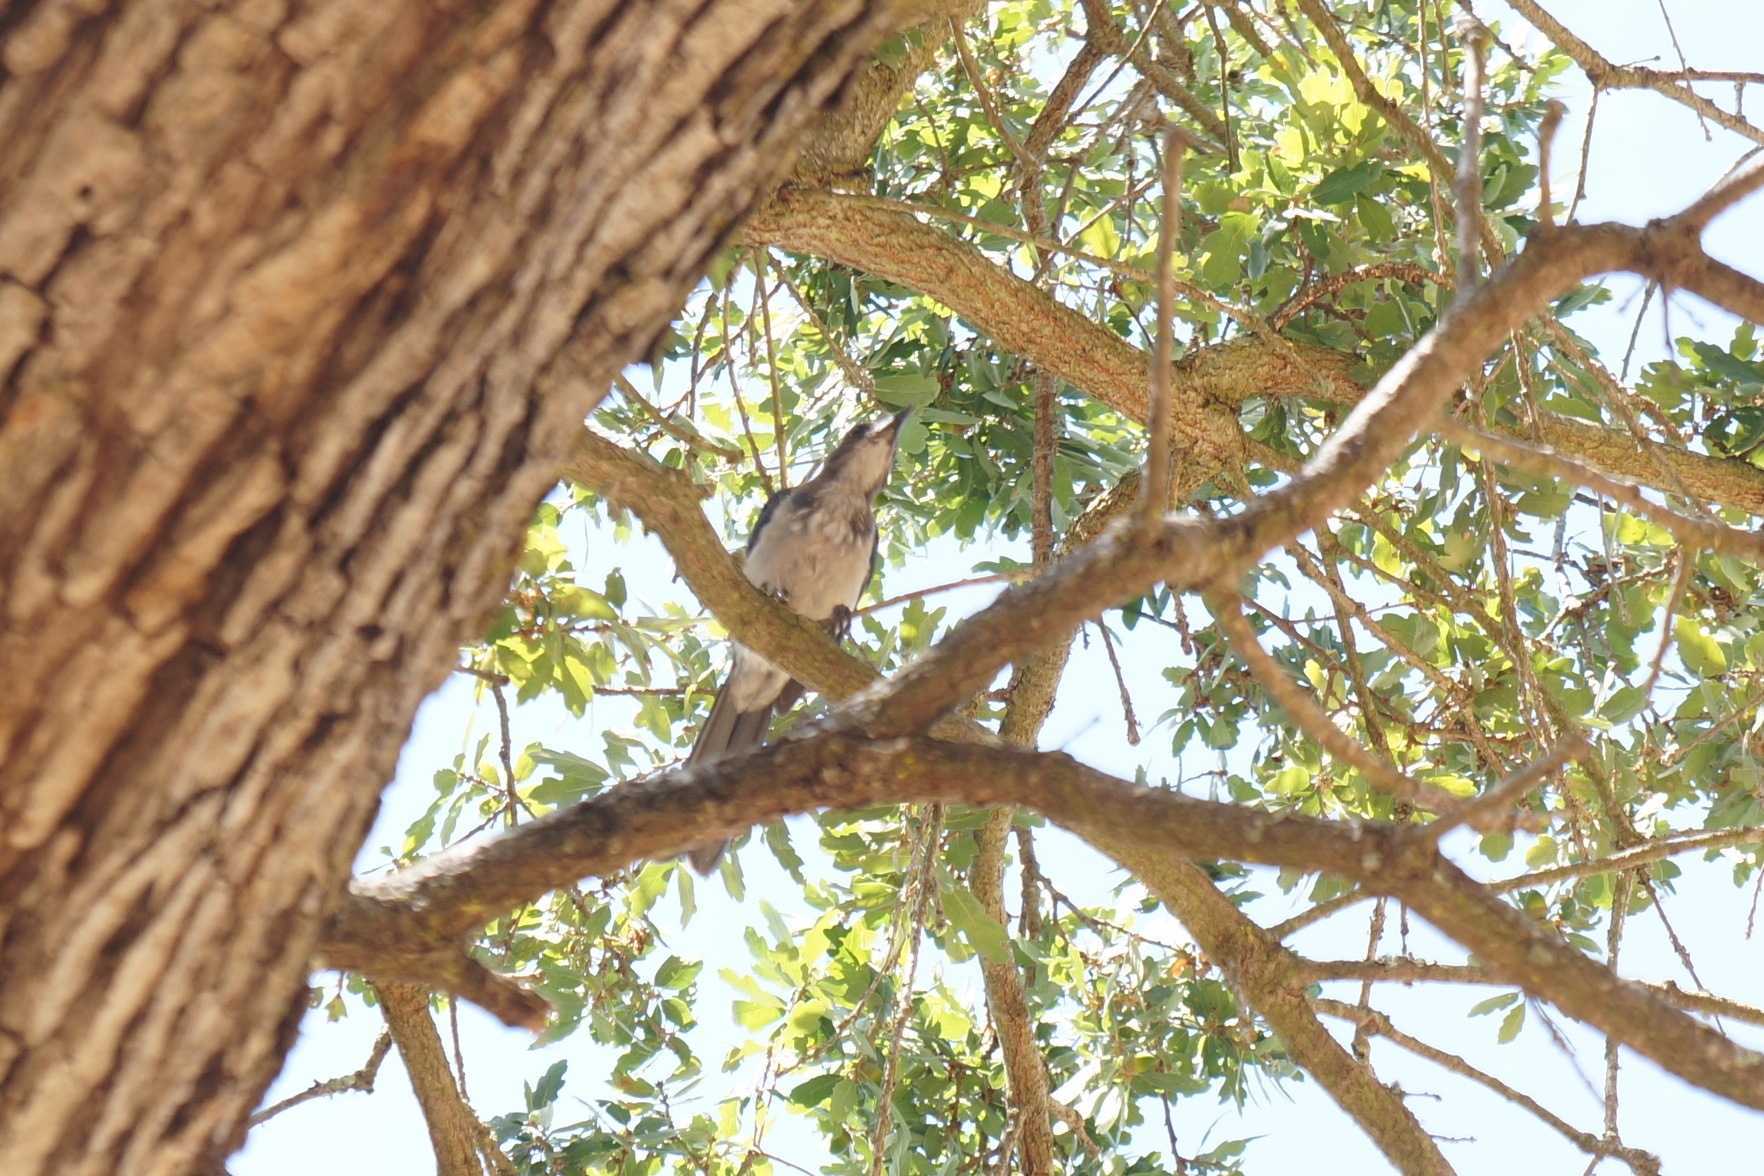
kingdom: Animalia
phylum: Chordata
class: Aves
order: Passeriformes
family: Corvidae
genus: Aphelocoma
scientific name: Aphelocoma californica
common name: California scrub-jay
